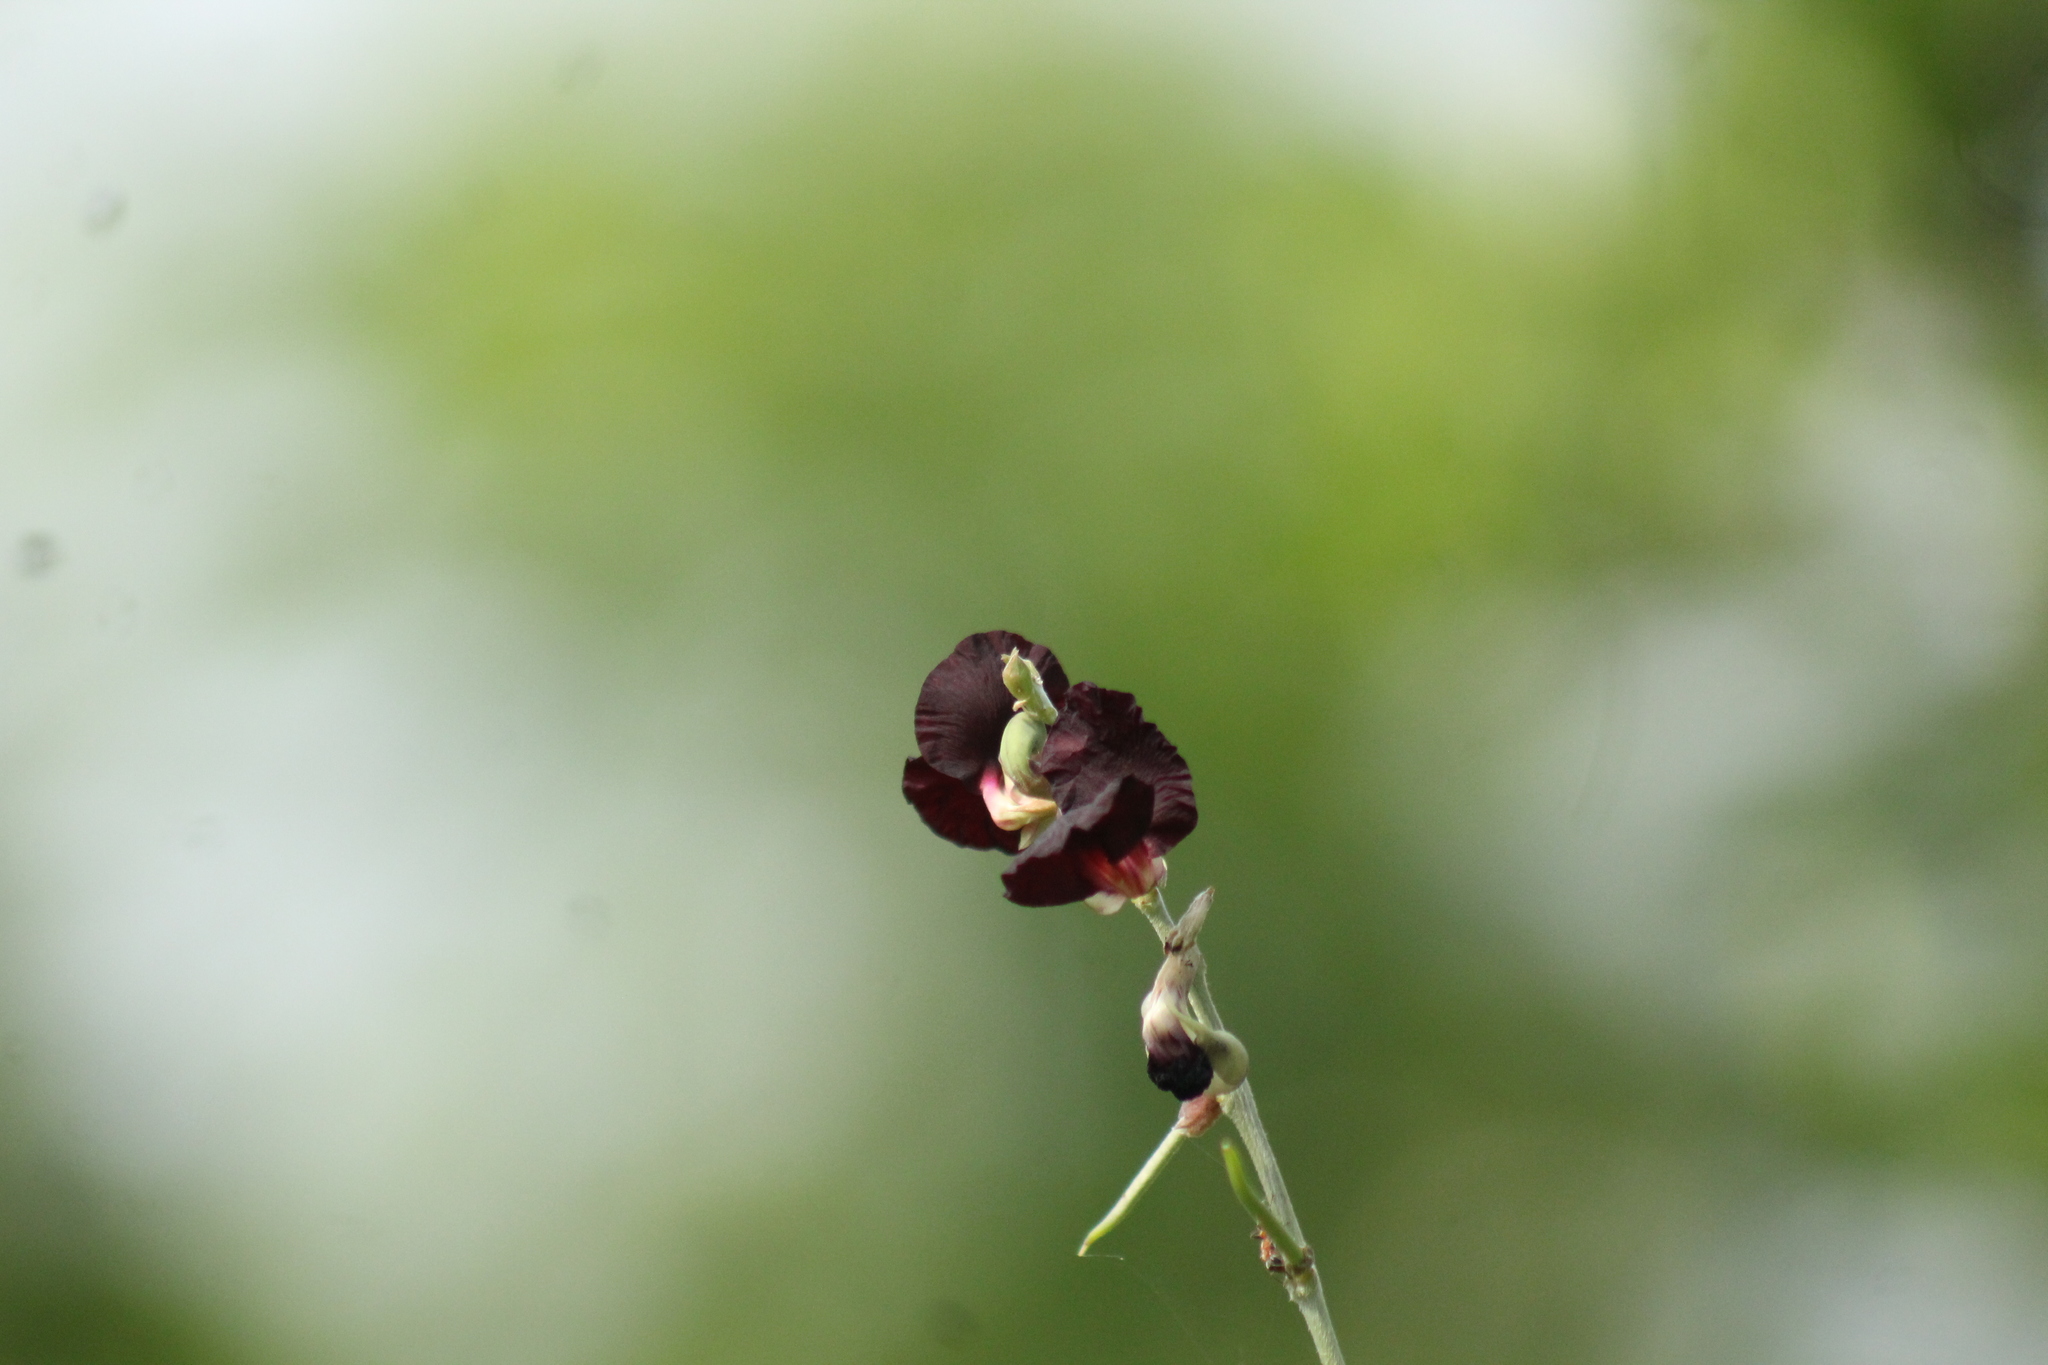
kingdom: Plantae
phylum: Tracheophyta
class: Magnoliopsida
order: Fabales
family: Fabaceae
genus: Macroptilium
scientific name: Macroptilium atropurpureum
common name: Purple bushbean
